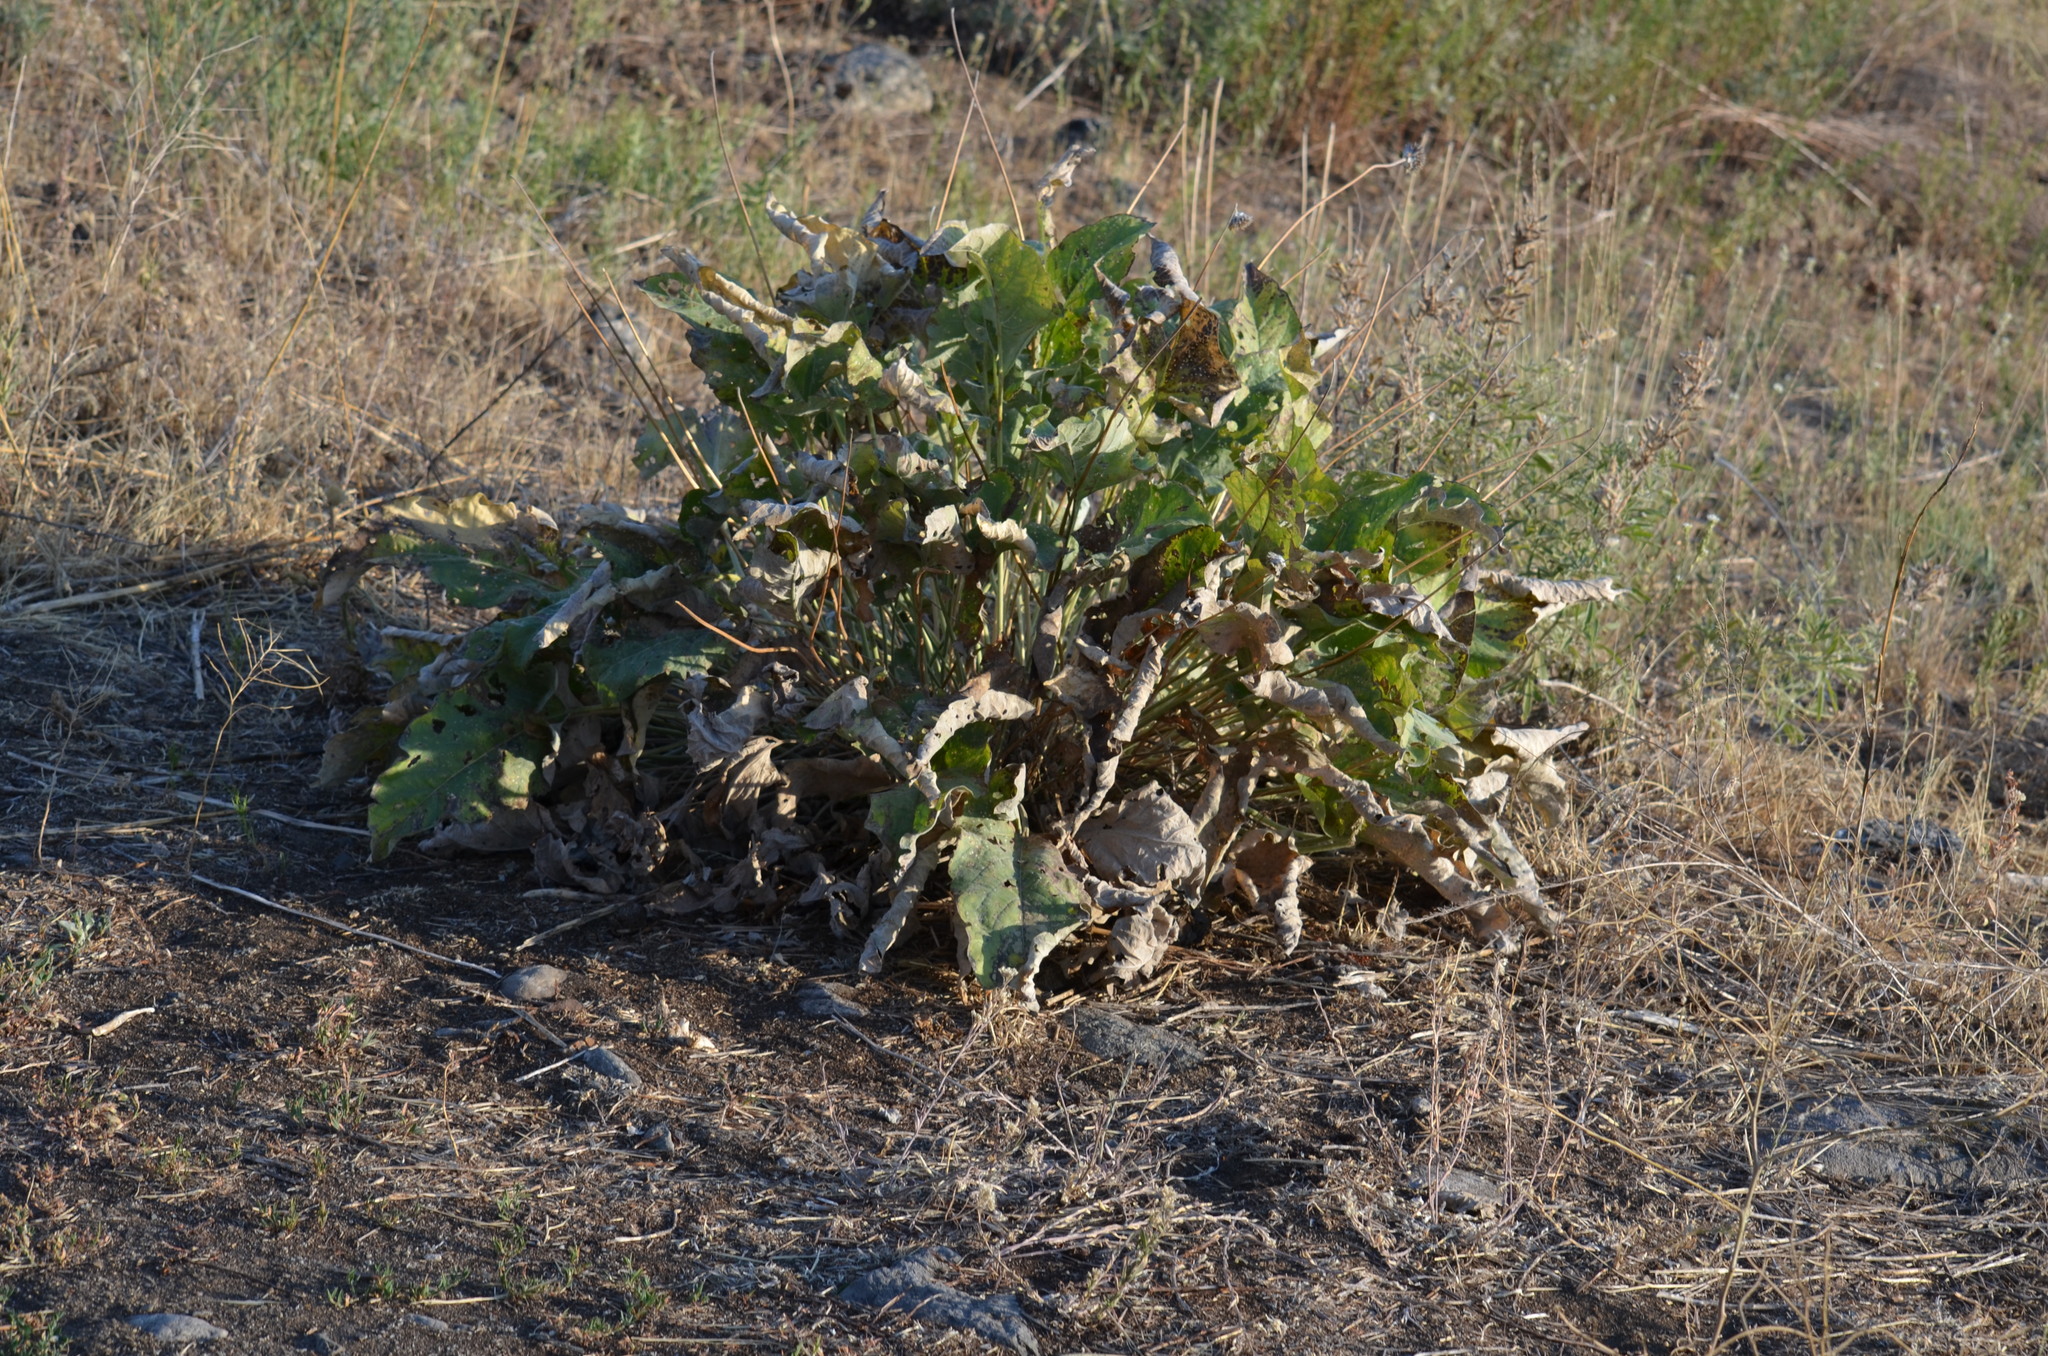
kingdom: Plantae
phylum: Tracheophyta
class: Magnoliopsida
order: Asterales
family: Asteraceae
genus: Wyethia
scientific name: Wyethia sagittata
